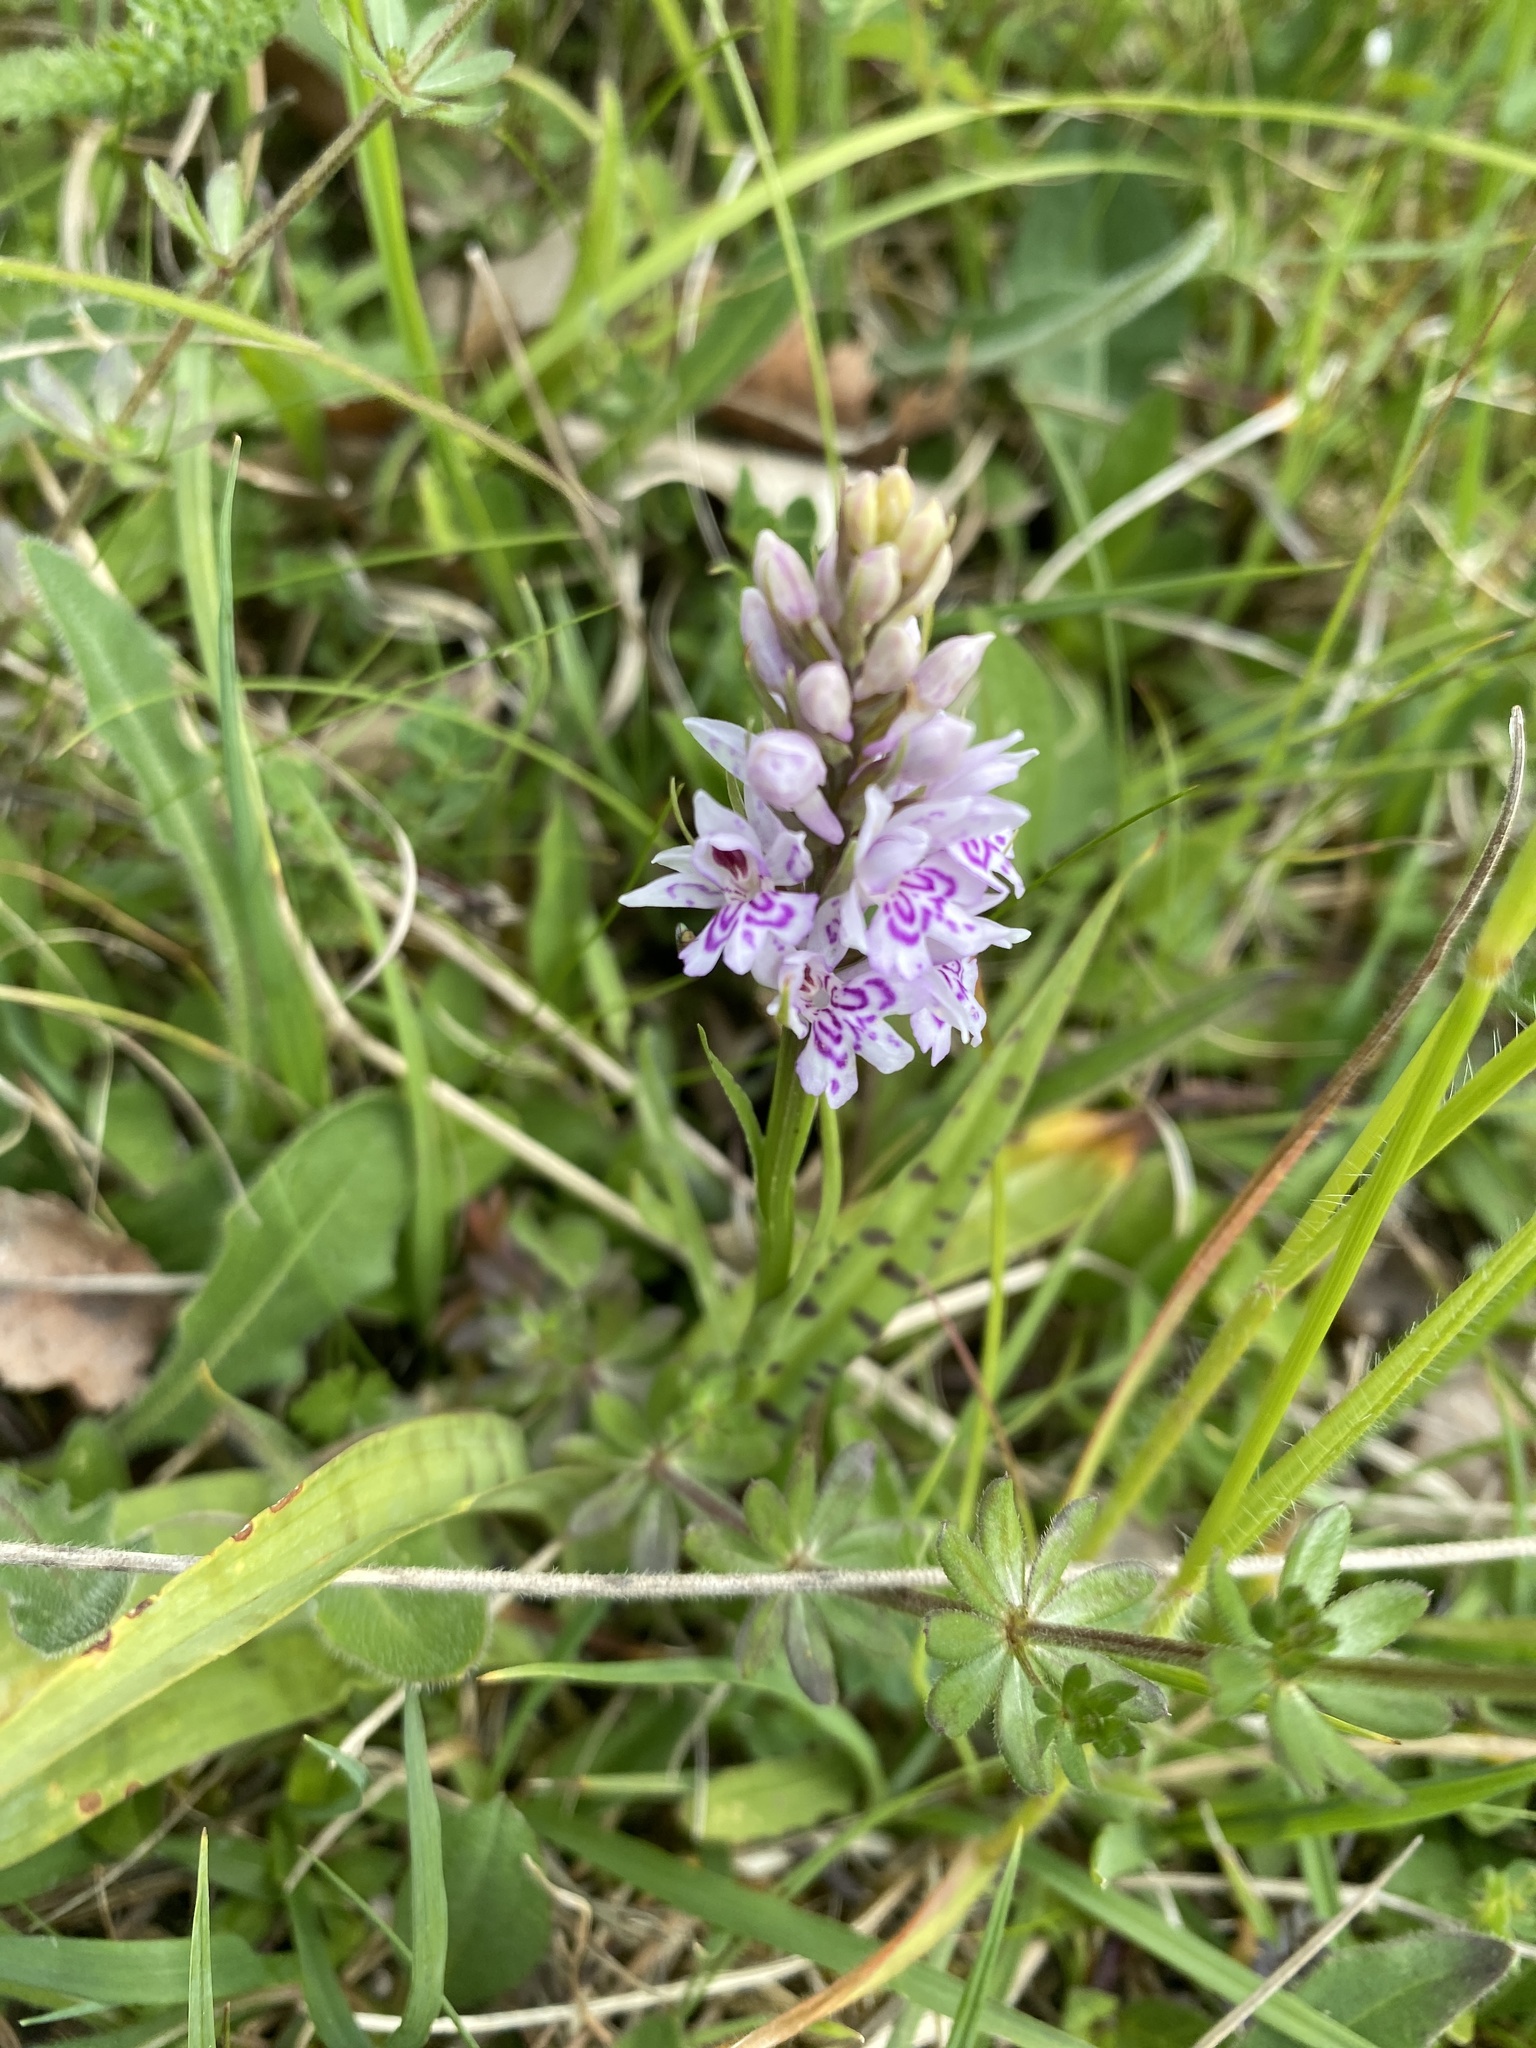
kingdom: Plantae
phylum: Tracheophyta
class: Liliopsida
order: Asparagales
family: Orchidaceae
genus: Dactylorhiza
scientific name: Dactylorhiza maculata
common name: Heath spotted-orchid
